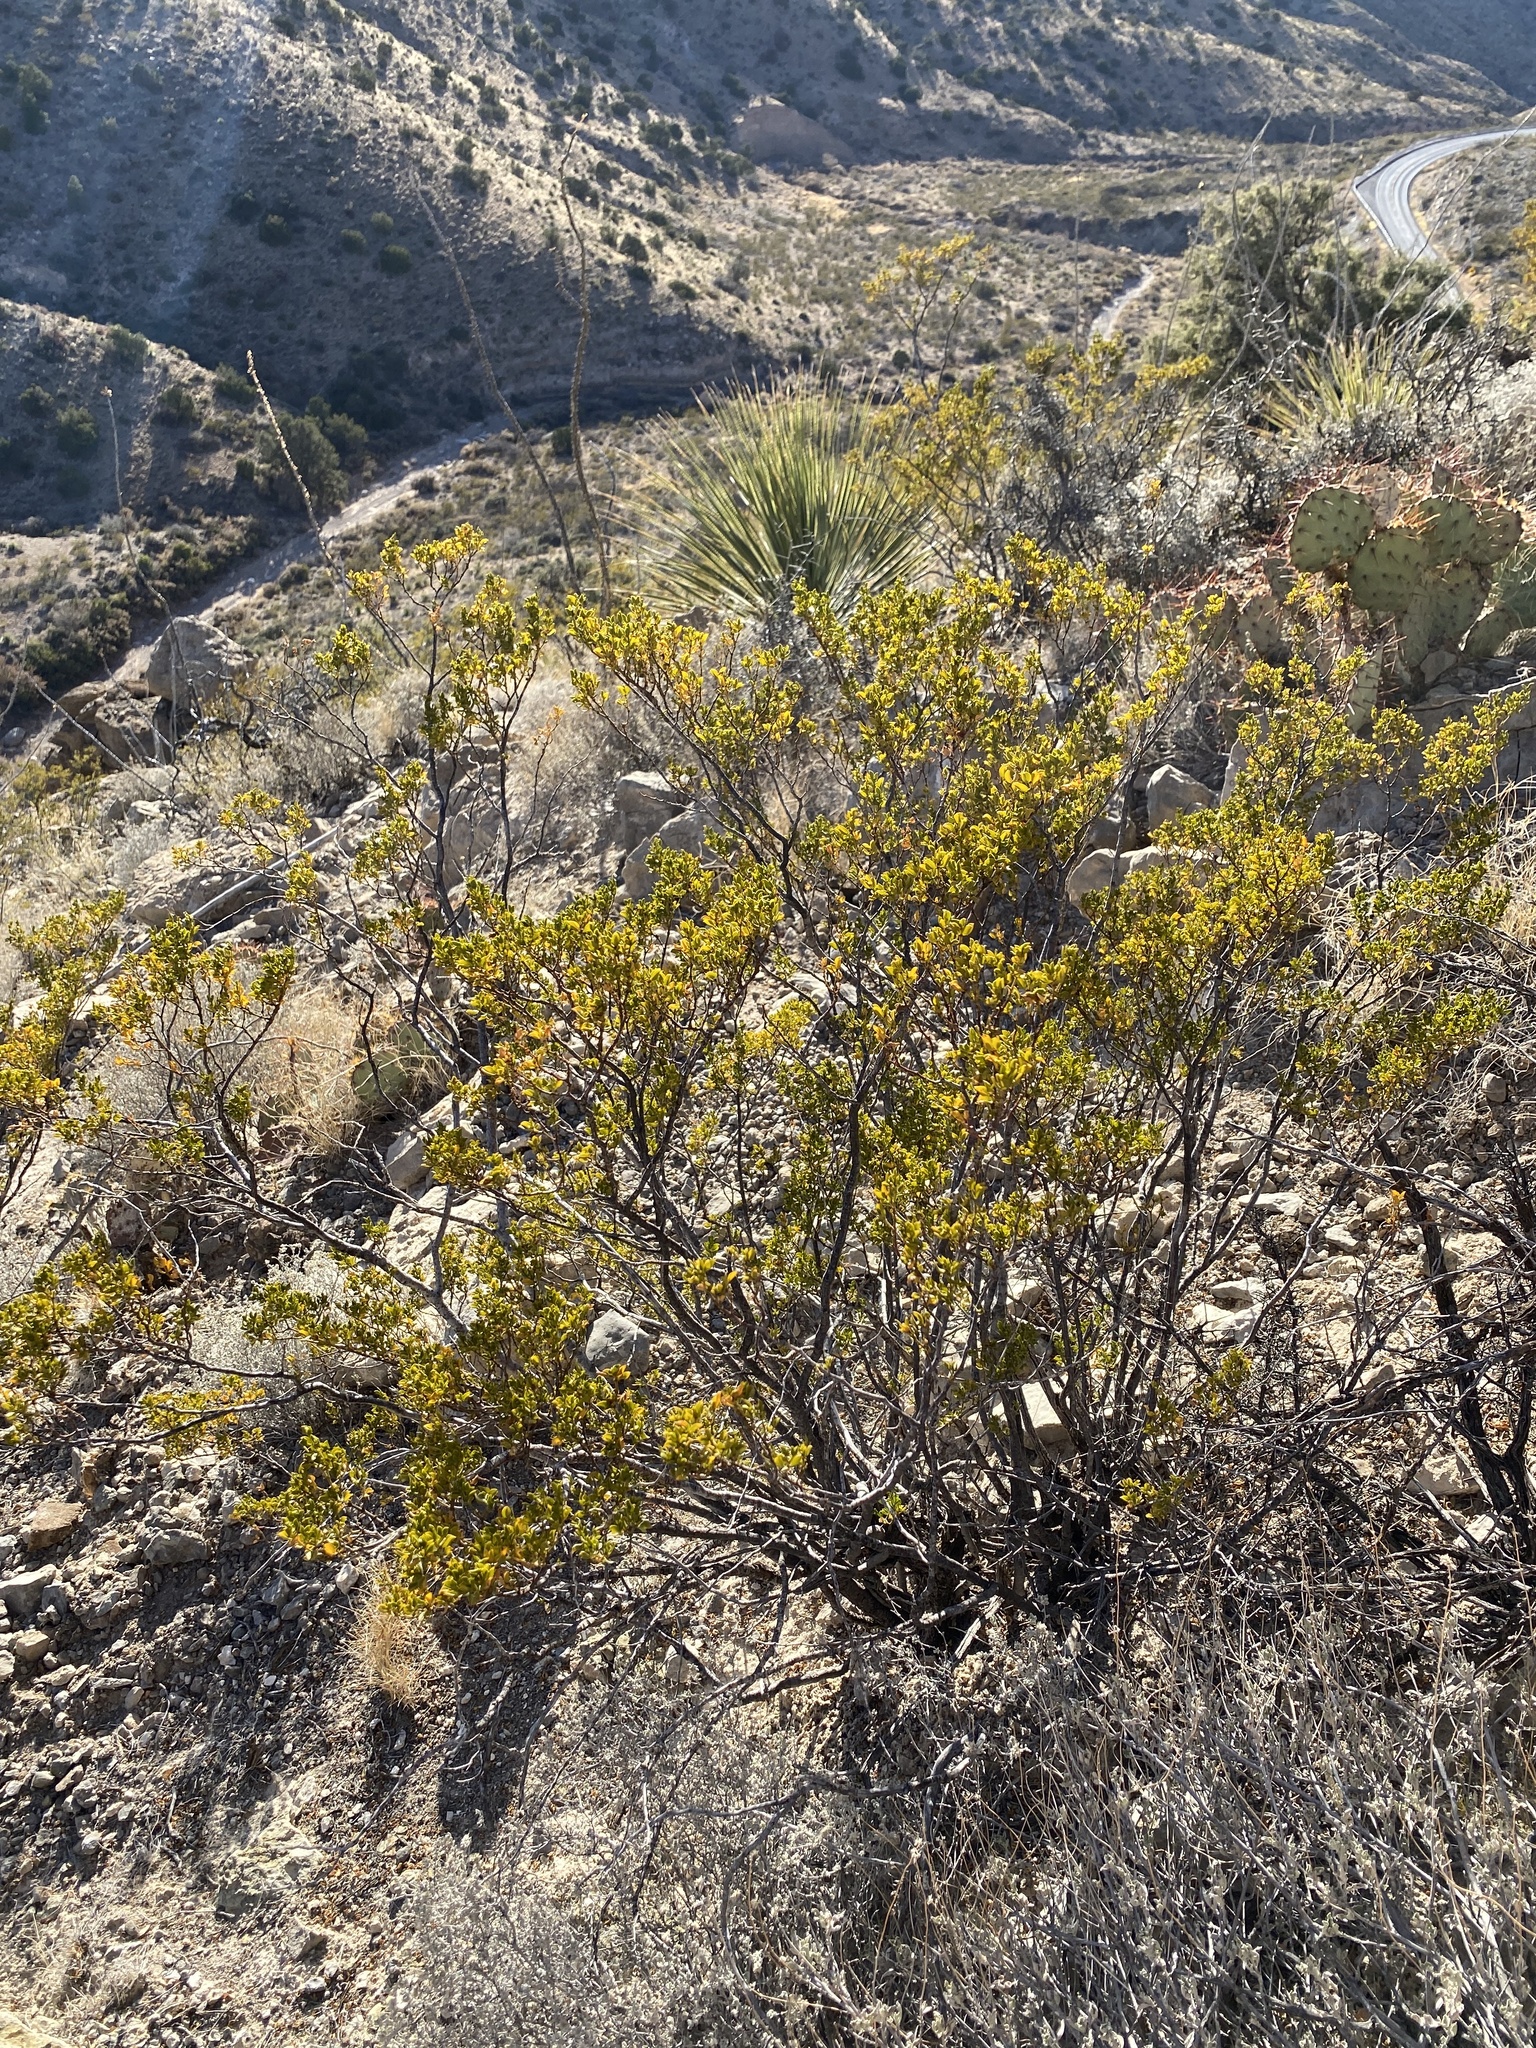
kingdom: Plantae
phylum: Tracheophyta
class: Magnoliopsida
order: Zygophyllales
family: Zygophyllaceae
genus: Larrea
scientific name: Larrea tridentata
